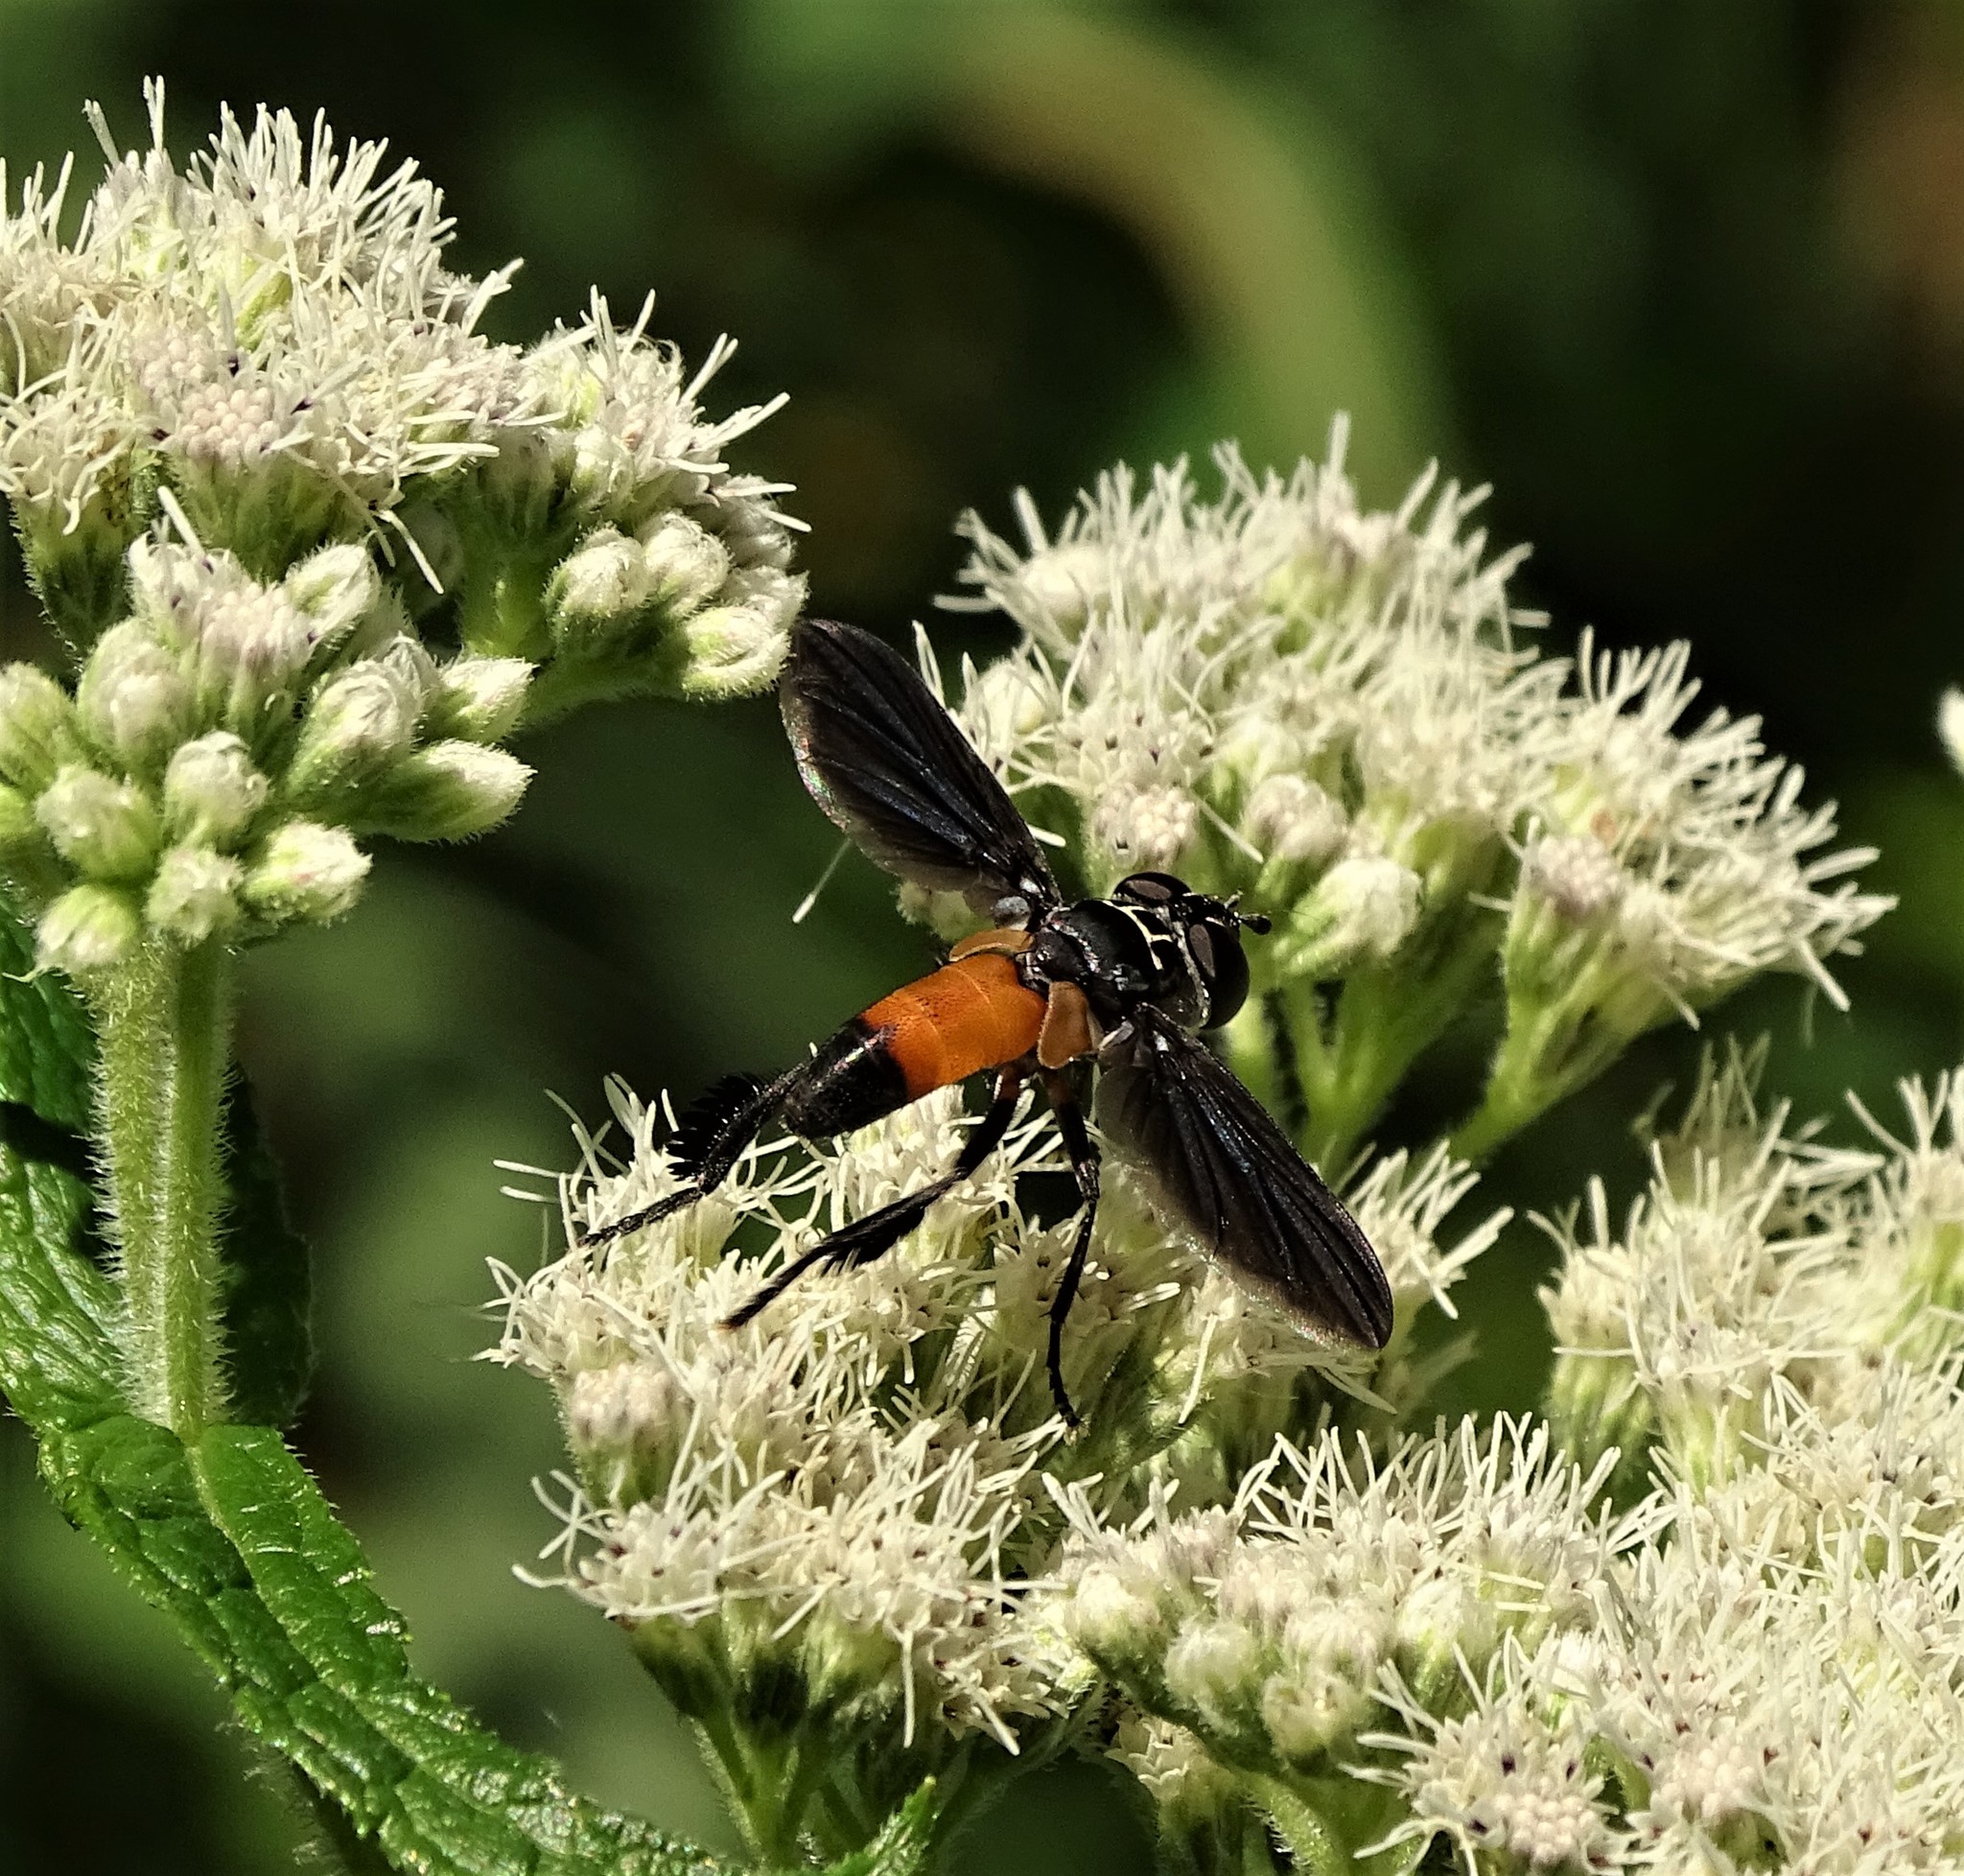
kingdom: Animalia
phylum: Arthropoda
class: Insecta
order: Diptera
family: Tachinidae
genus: Trichopoda
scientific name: Trichopoda pennipes
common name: Tachinid fly
